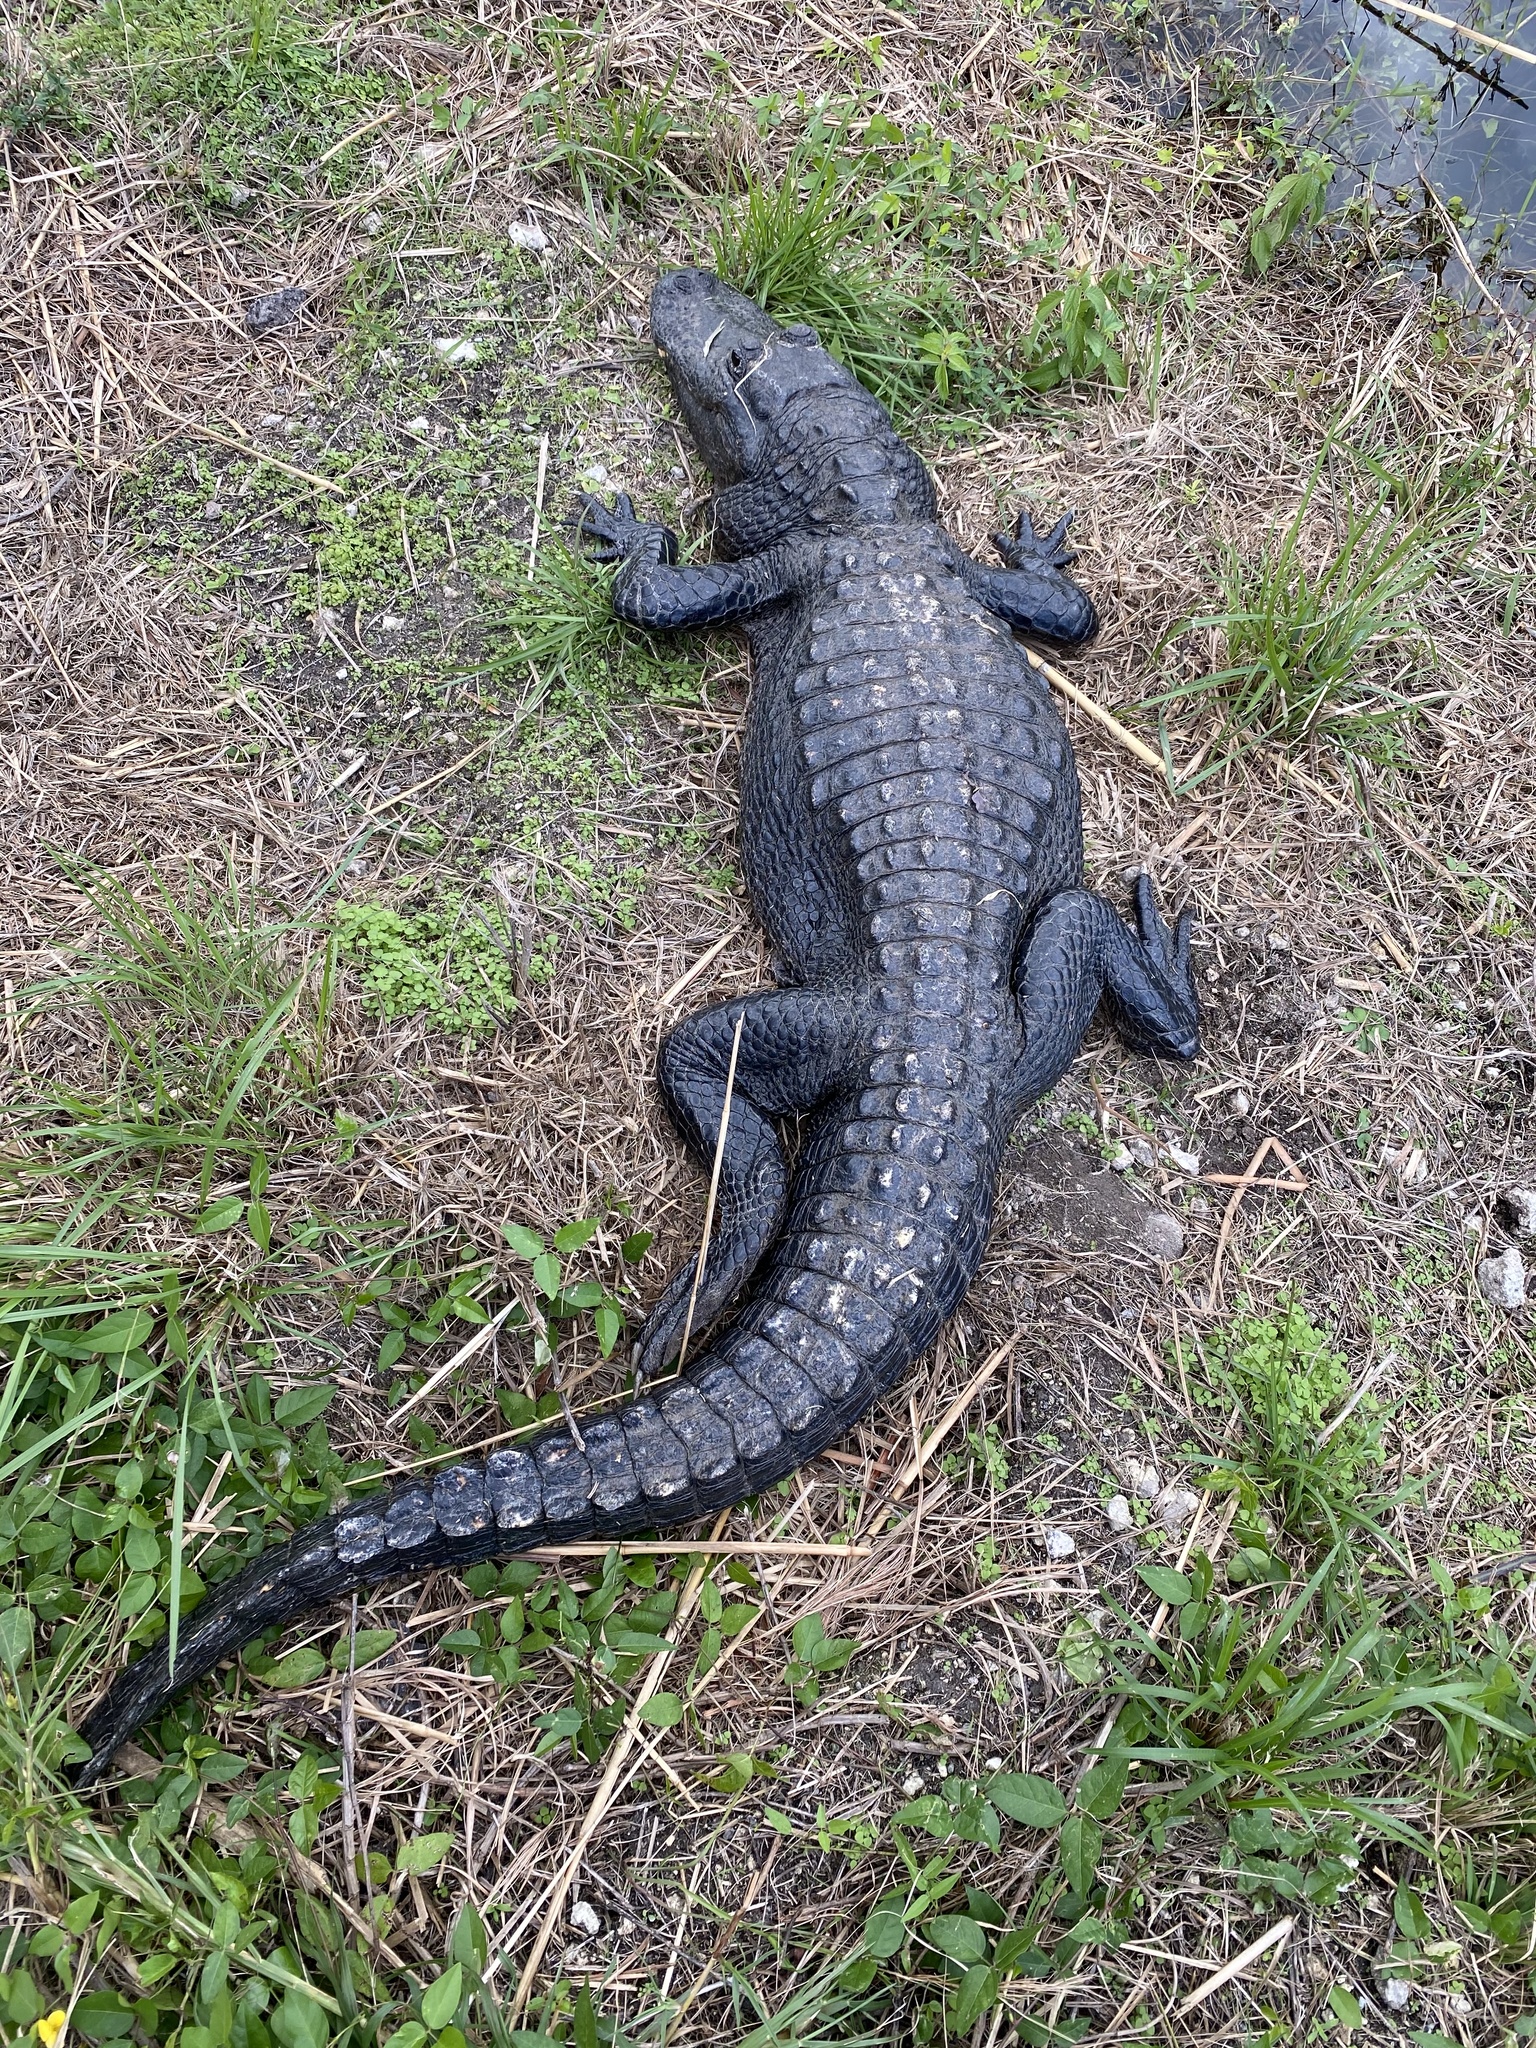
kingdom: Animalia
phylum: Chordata
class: Crocodylia
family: Alligatoridae
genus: Alligator
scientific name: Alligator mississippiensis
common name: American alligator
